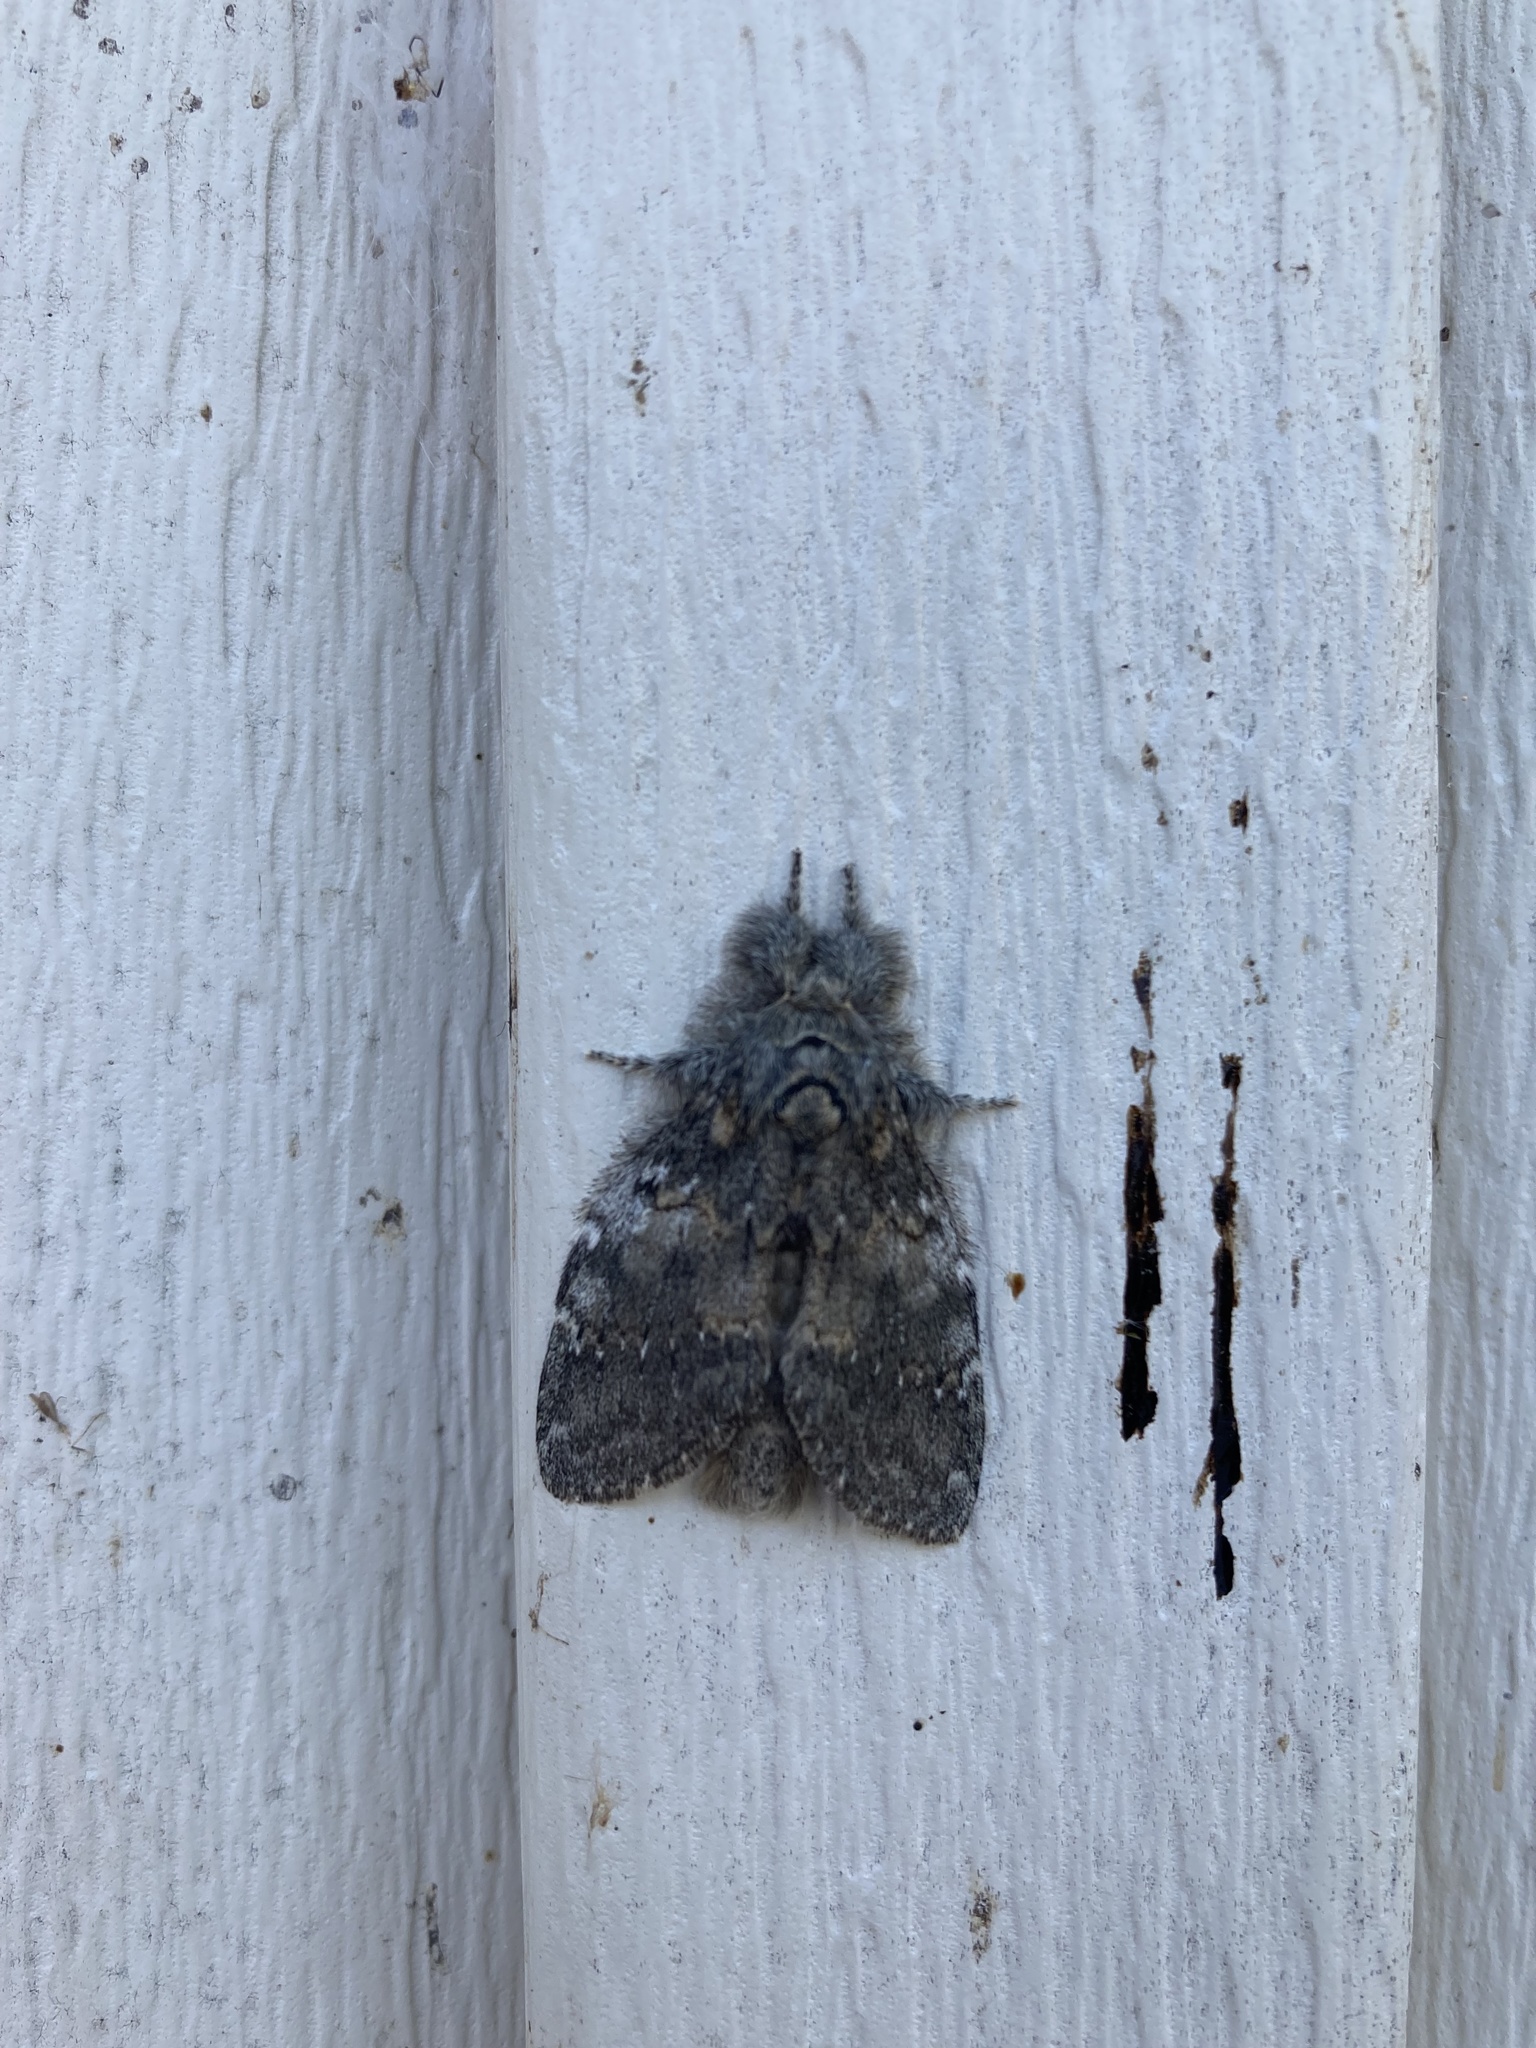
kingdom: Animalia
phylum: Arthropoda
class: Insecta
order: Lepidoptera
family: Notodontidae
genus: Peridea
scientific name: Peridea angulosa
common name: Angulose prominent
